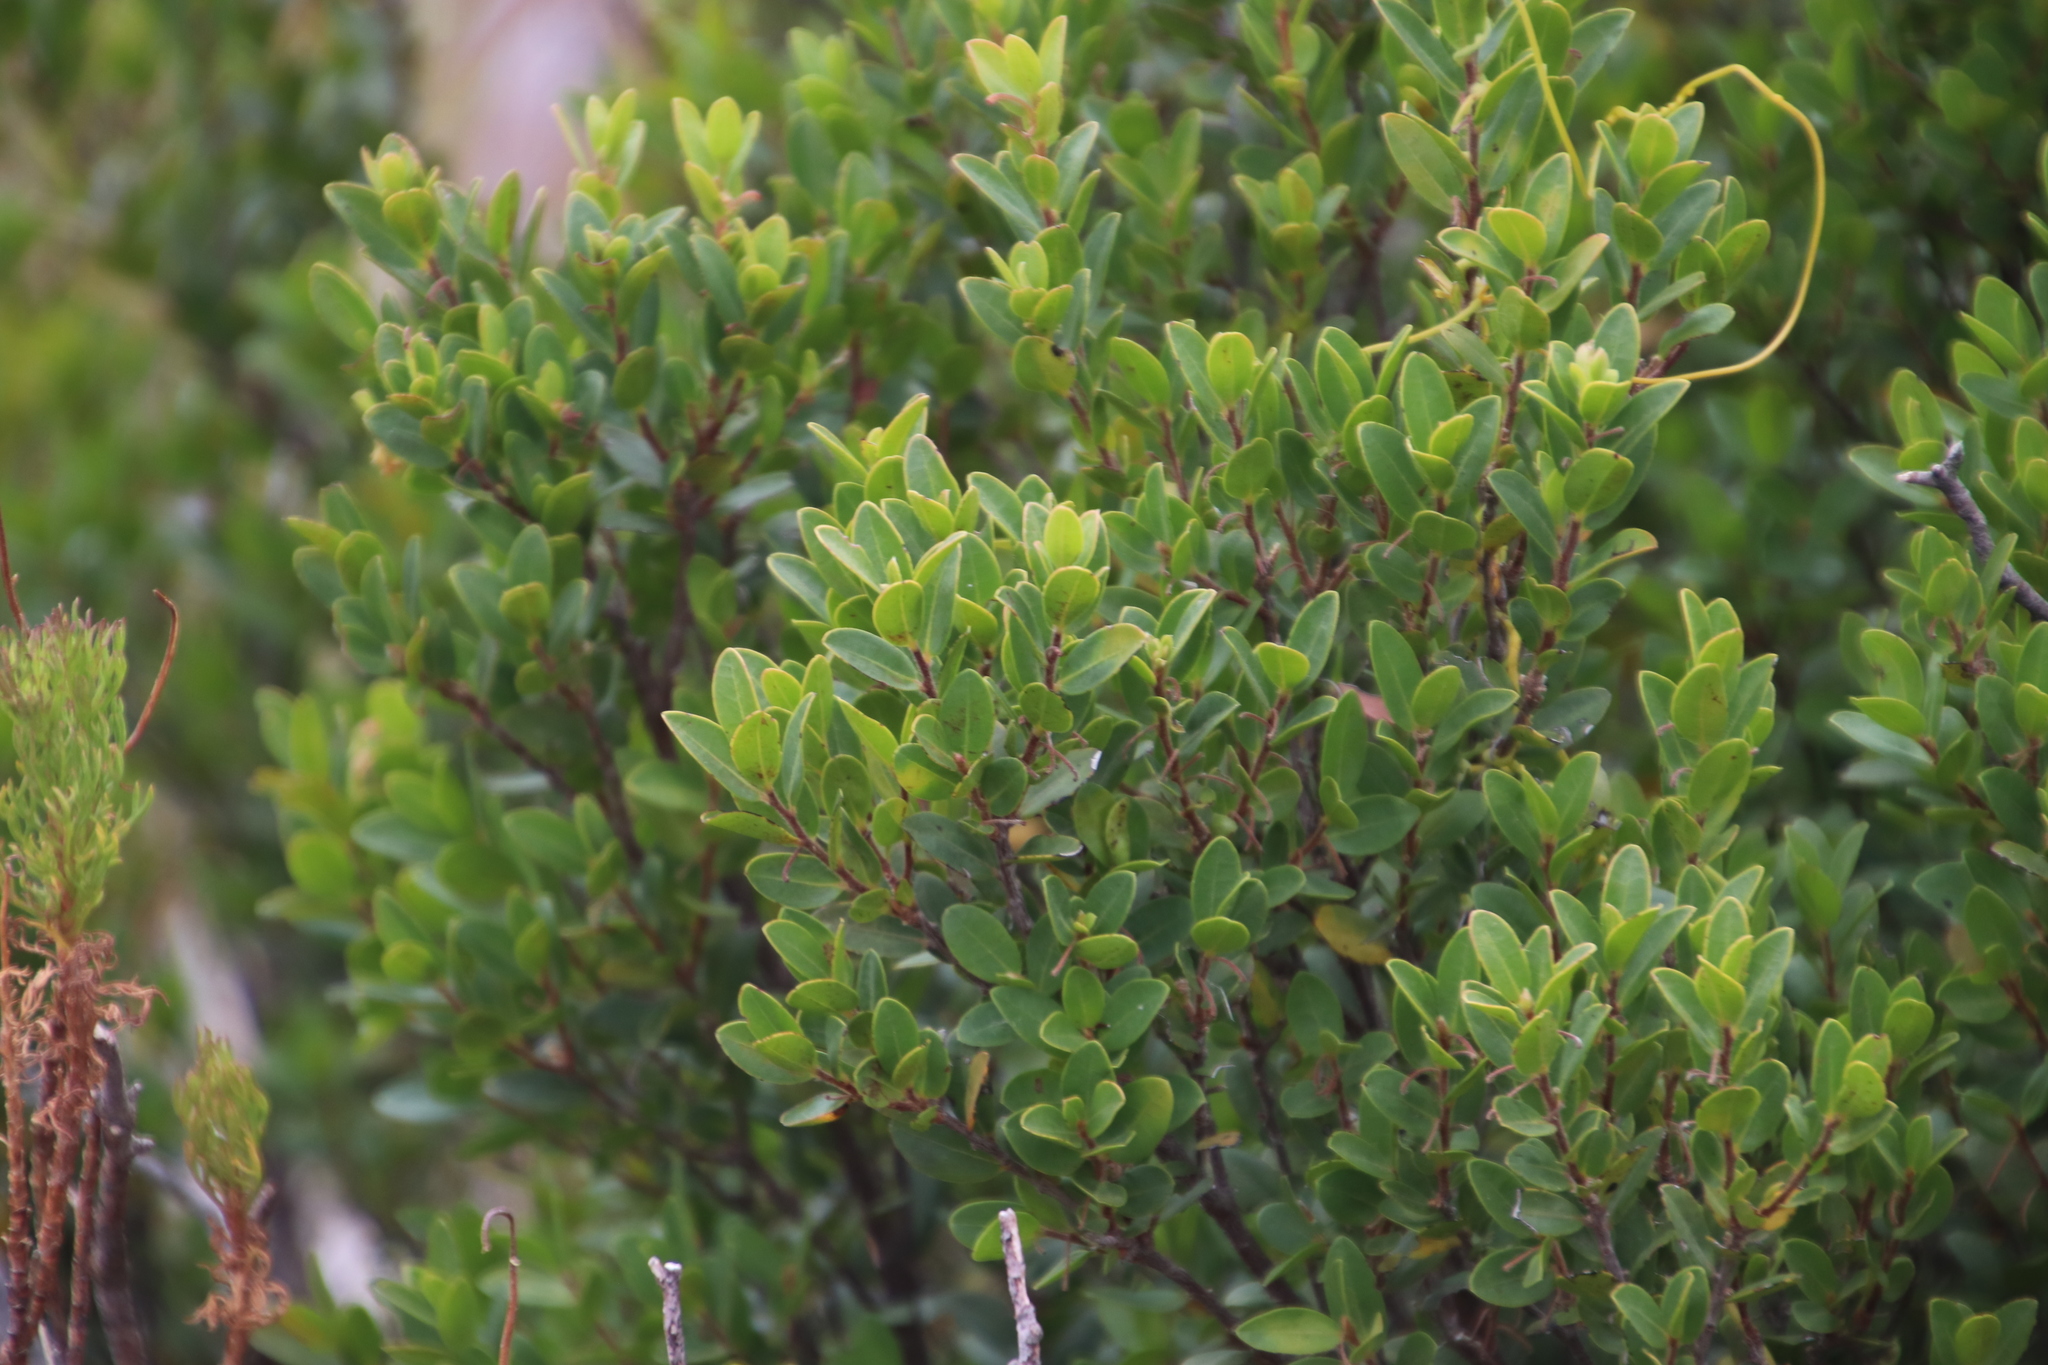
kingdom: Plantae
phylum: Tracheophyta
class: Magnoliopsida
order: Ericales
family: Ebenaceae
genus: Diospyros
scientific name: Diospyros glabra
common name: Fynbos star apple
